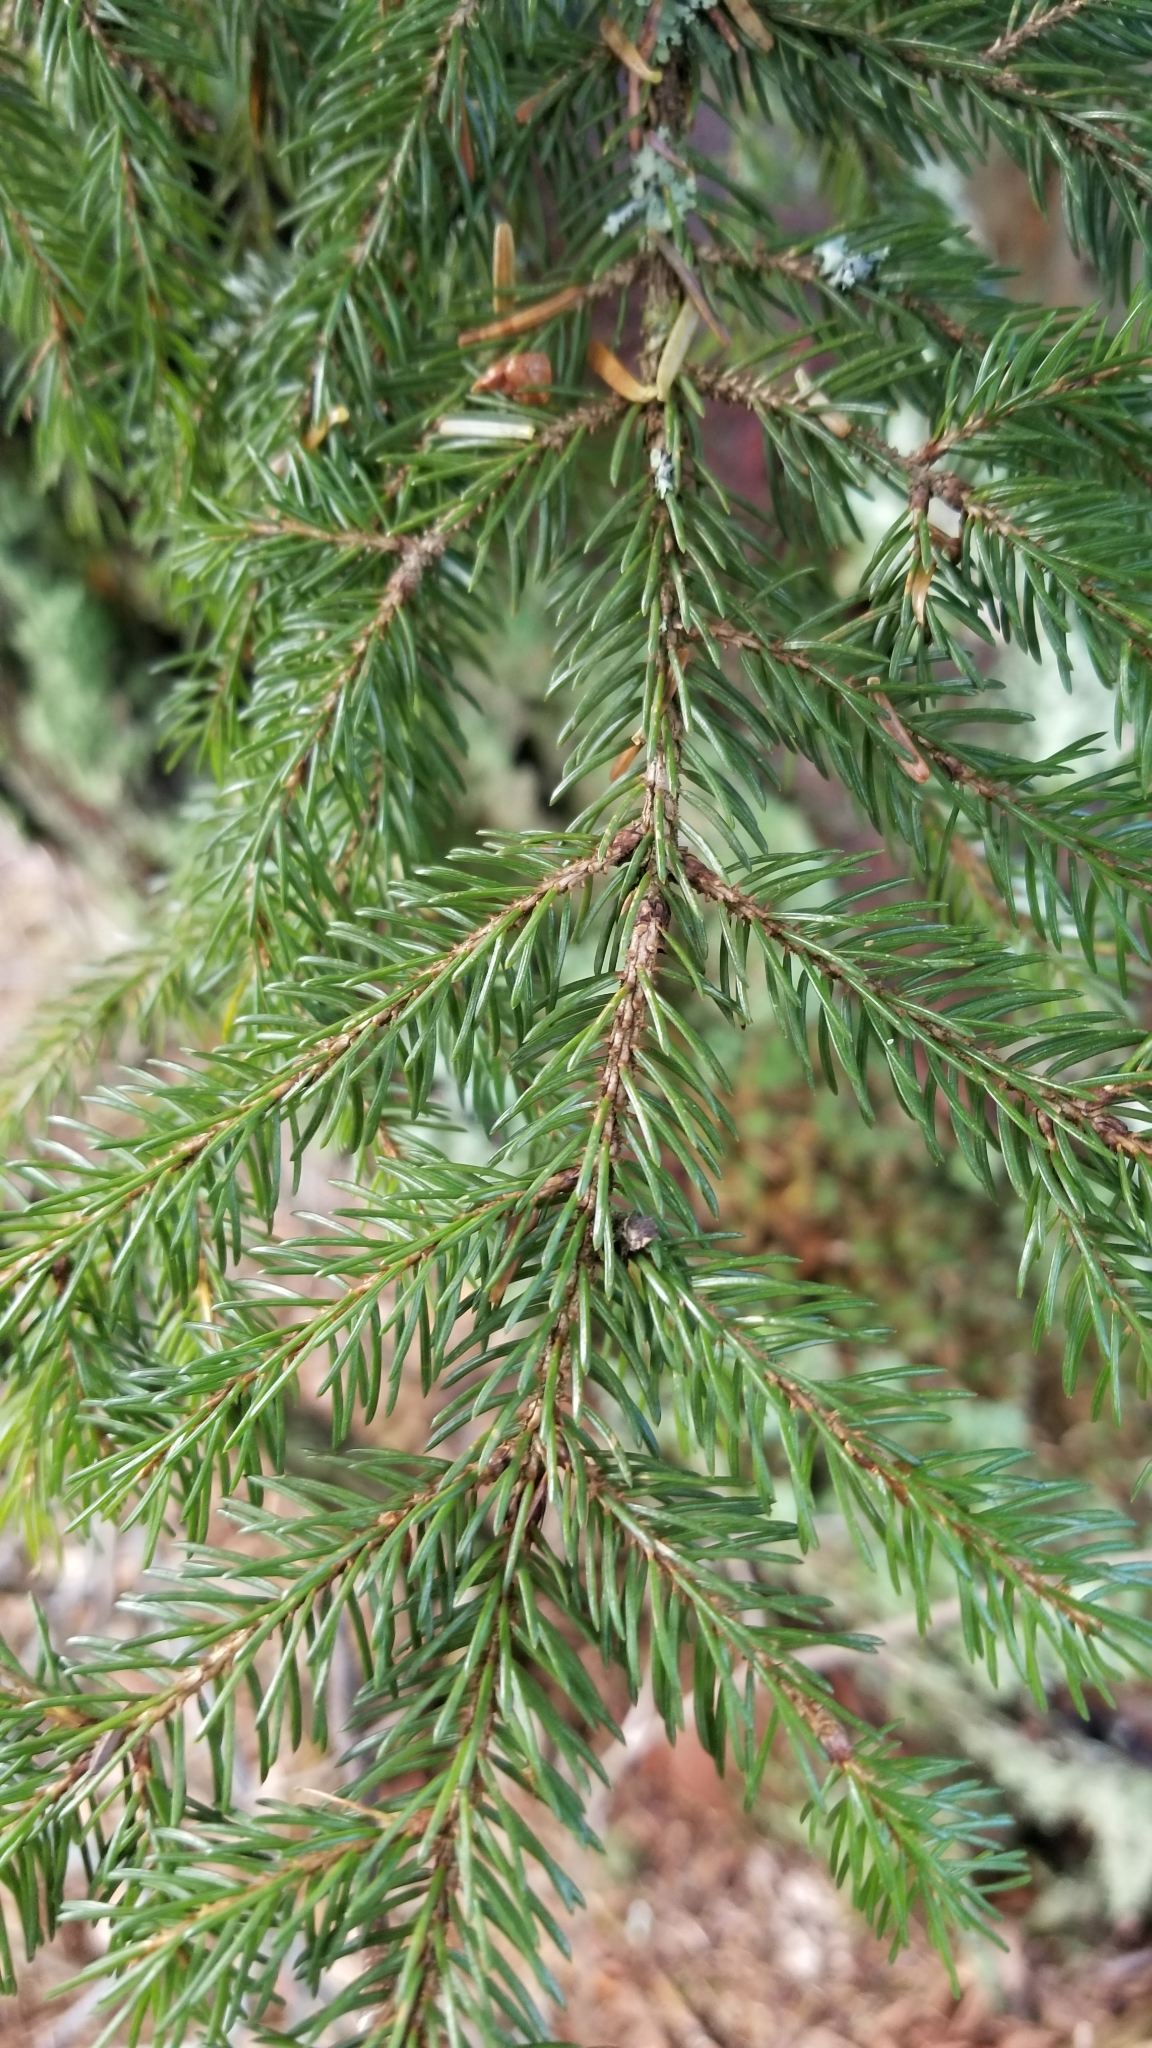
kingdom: Plantae
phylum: Tracheophyta
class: Pinopsida
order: Pinales
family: Pinaceae
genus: Picea
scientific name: Picea rubens
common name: Red spruce
